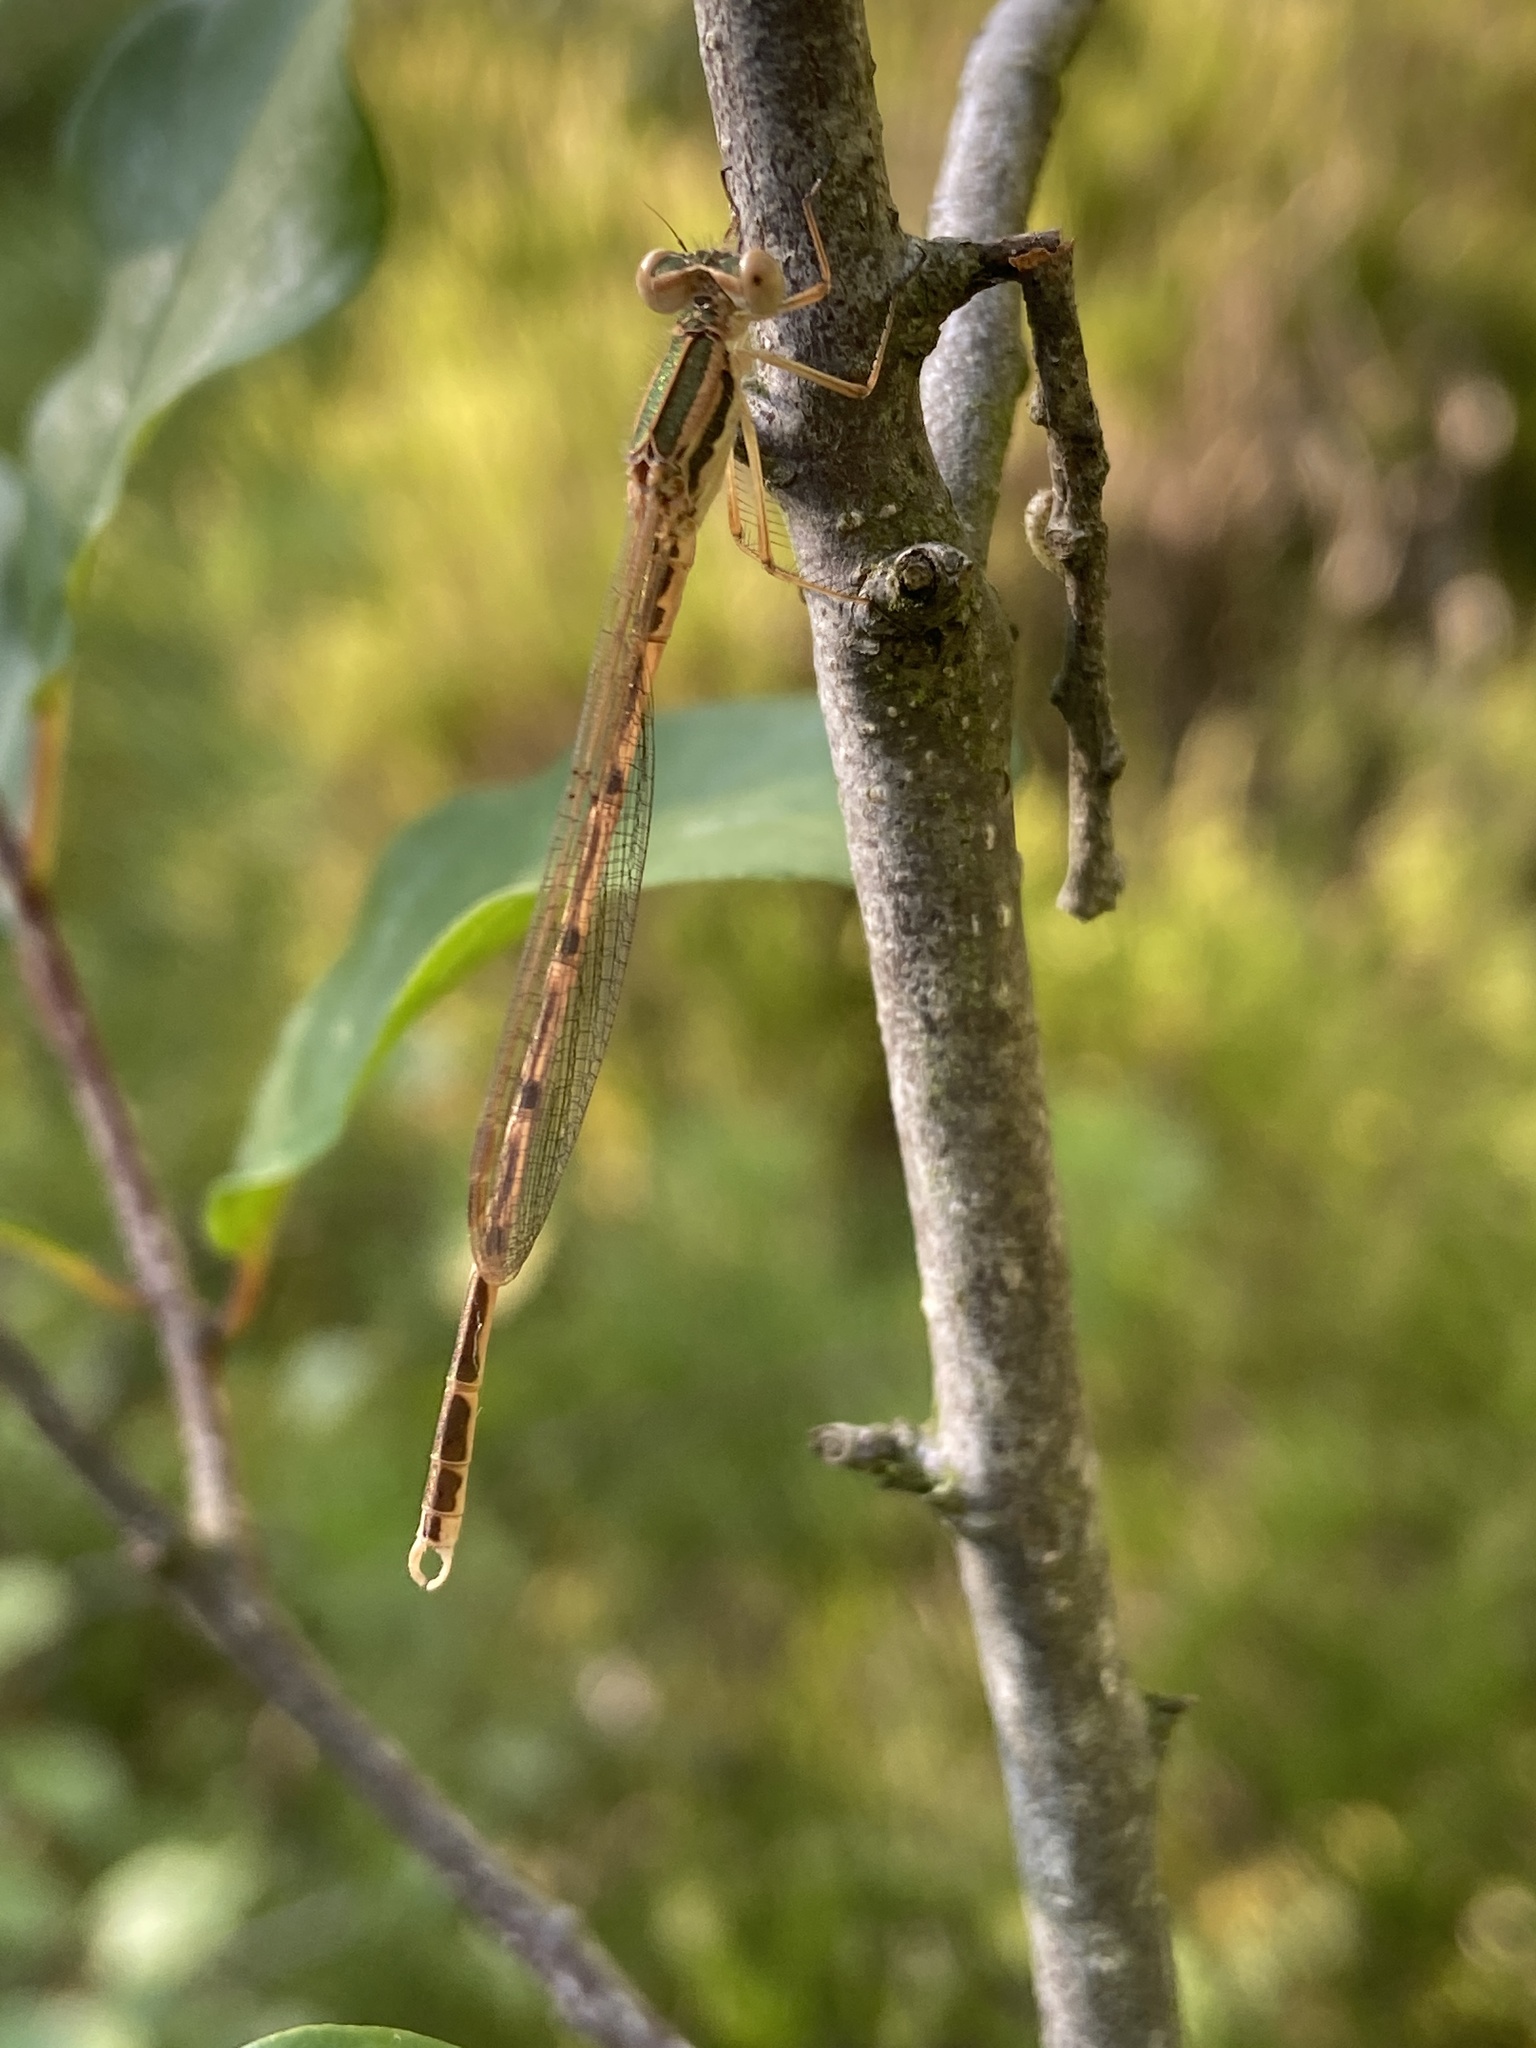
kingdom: Animalia
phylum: Arthropoda
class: Insecta
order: Odonata
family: Lestidae
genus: Sympecma
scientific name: Sympecma fusca
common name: Common winter damsel
